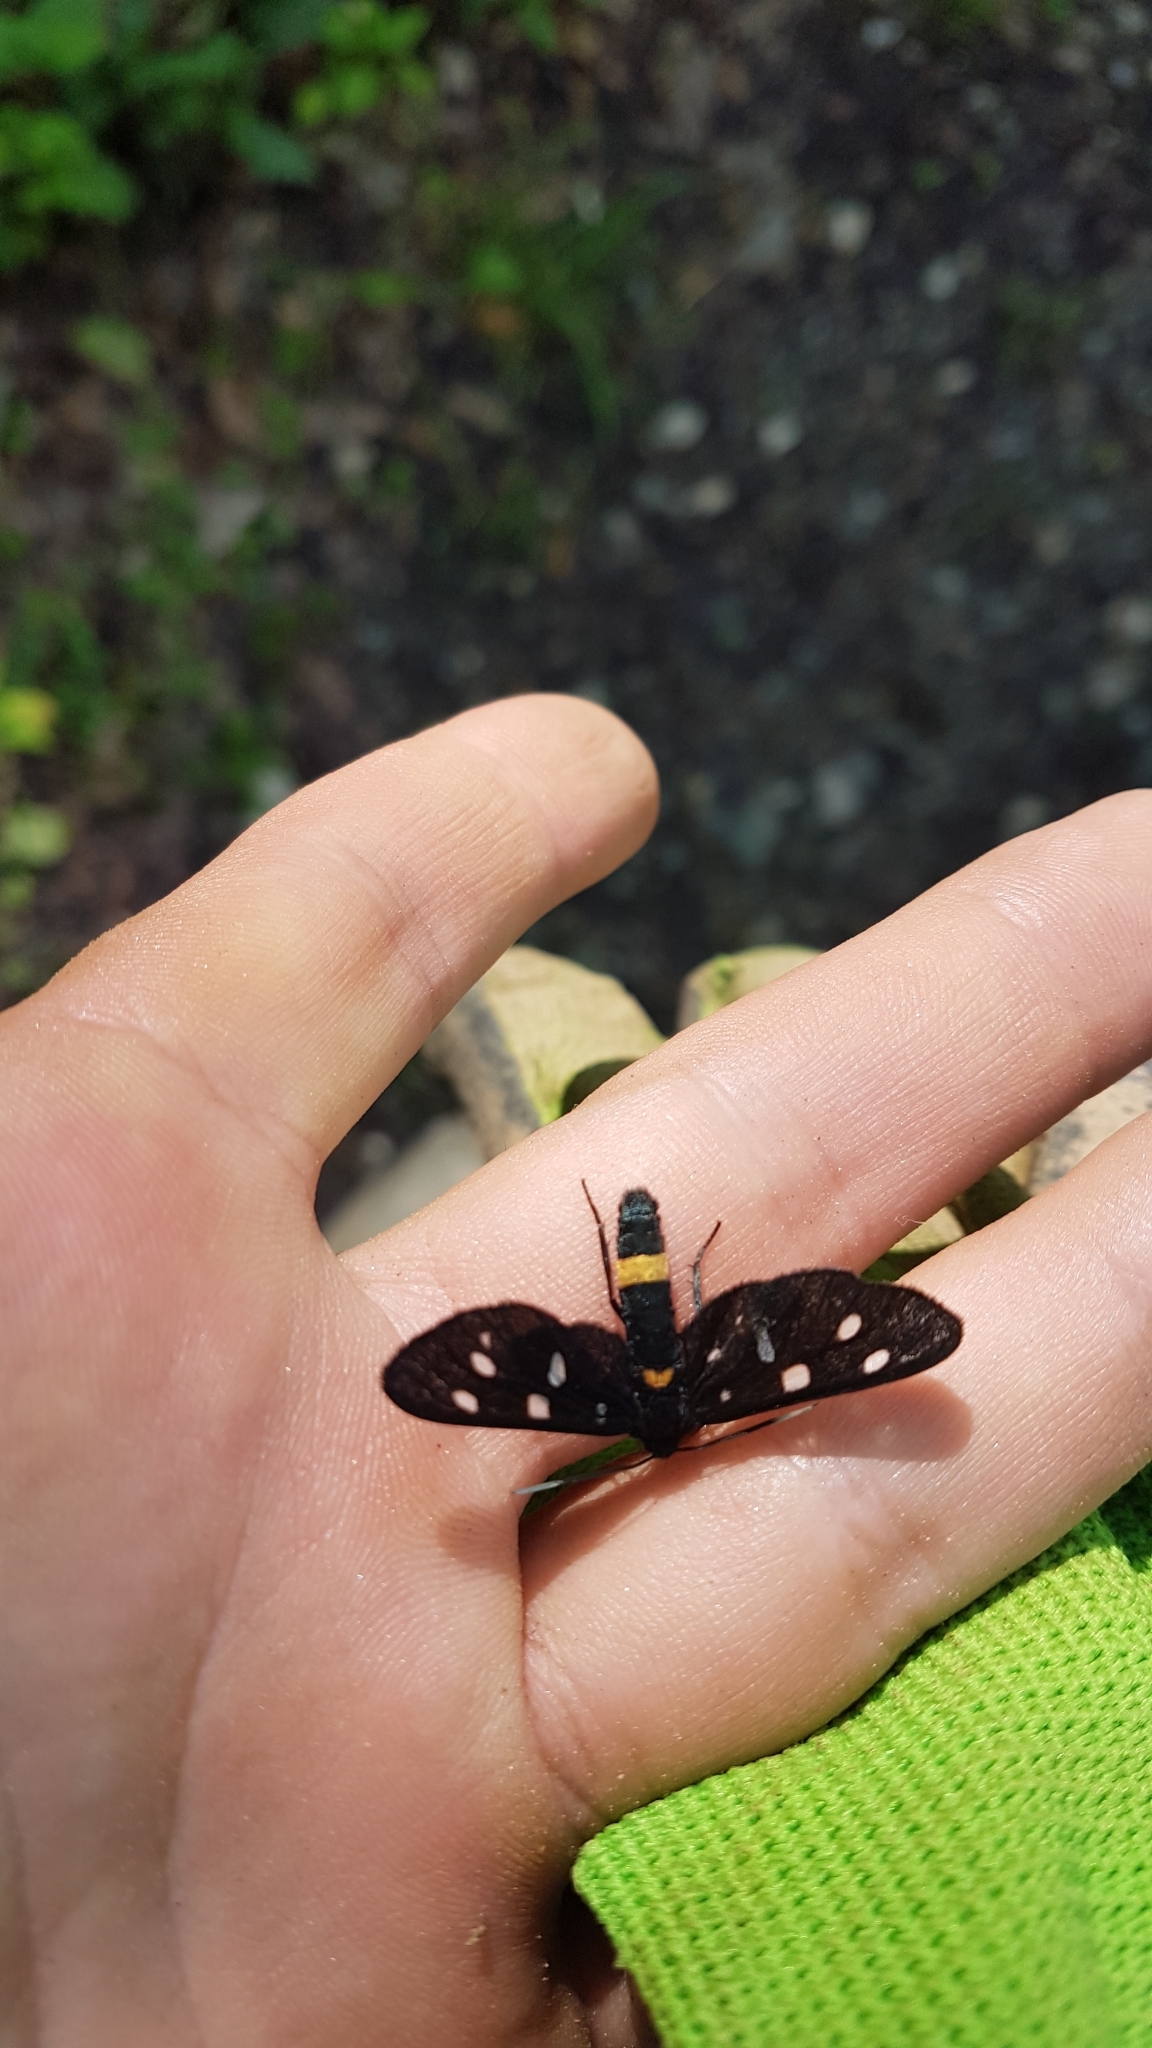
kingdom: Animalia
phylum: Arthropoda
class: Insecta
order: Lepidoptera
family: Erebidae
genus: Amata
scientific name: Amata phegea
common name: Nine-spotted
